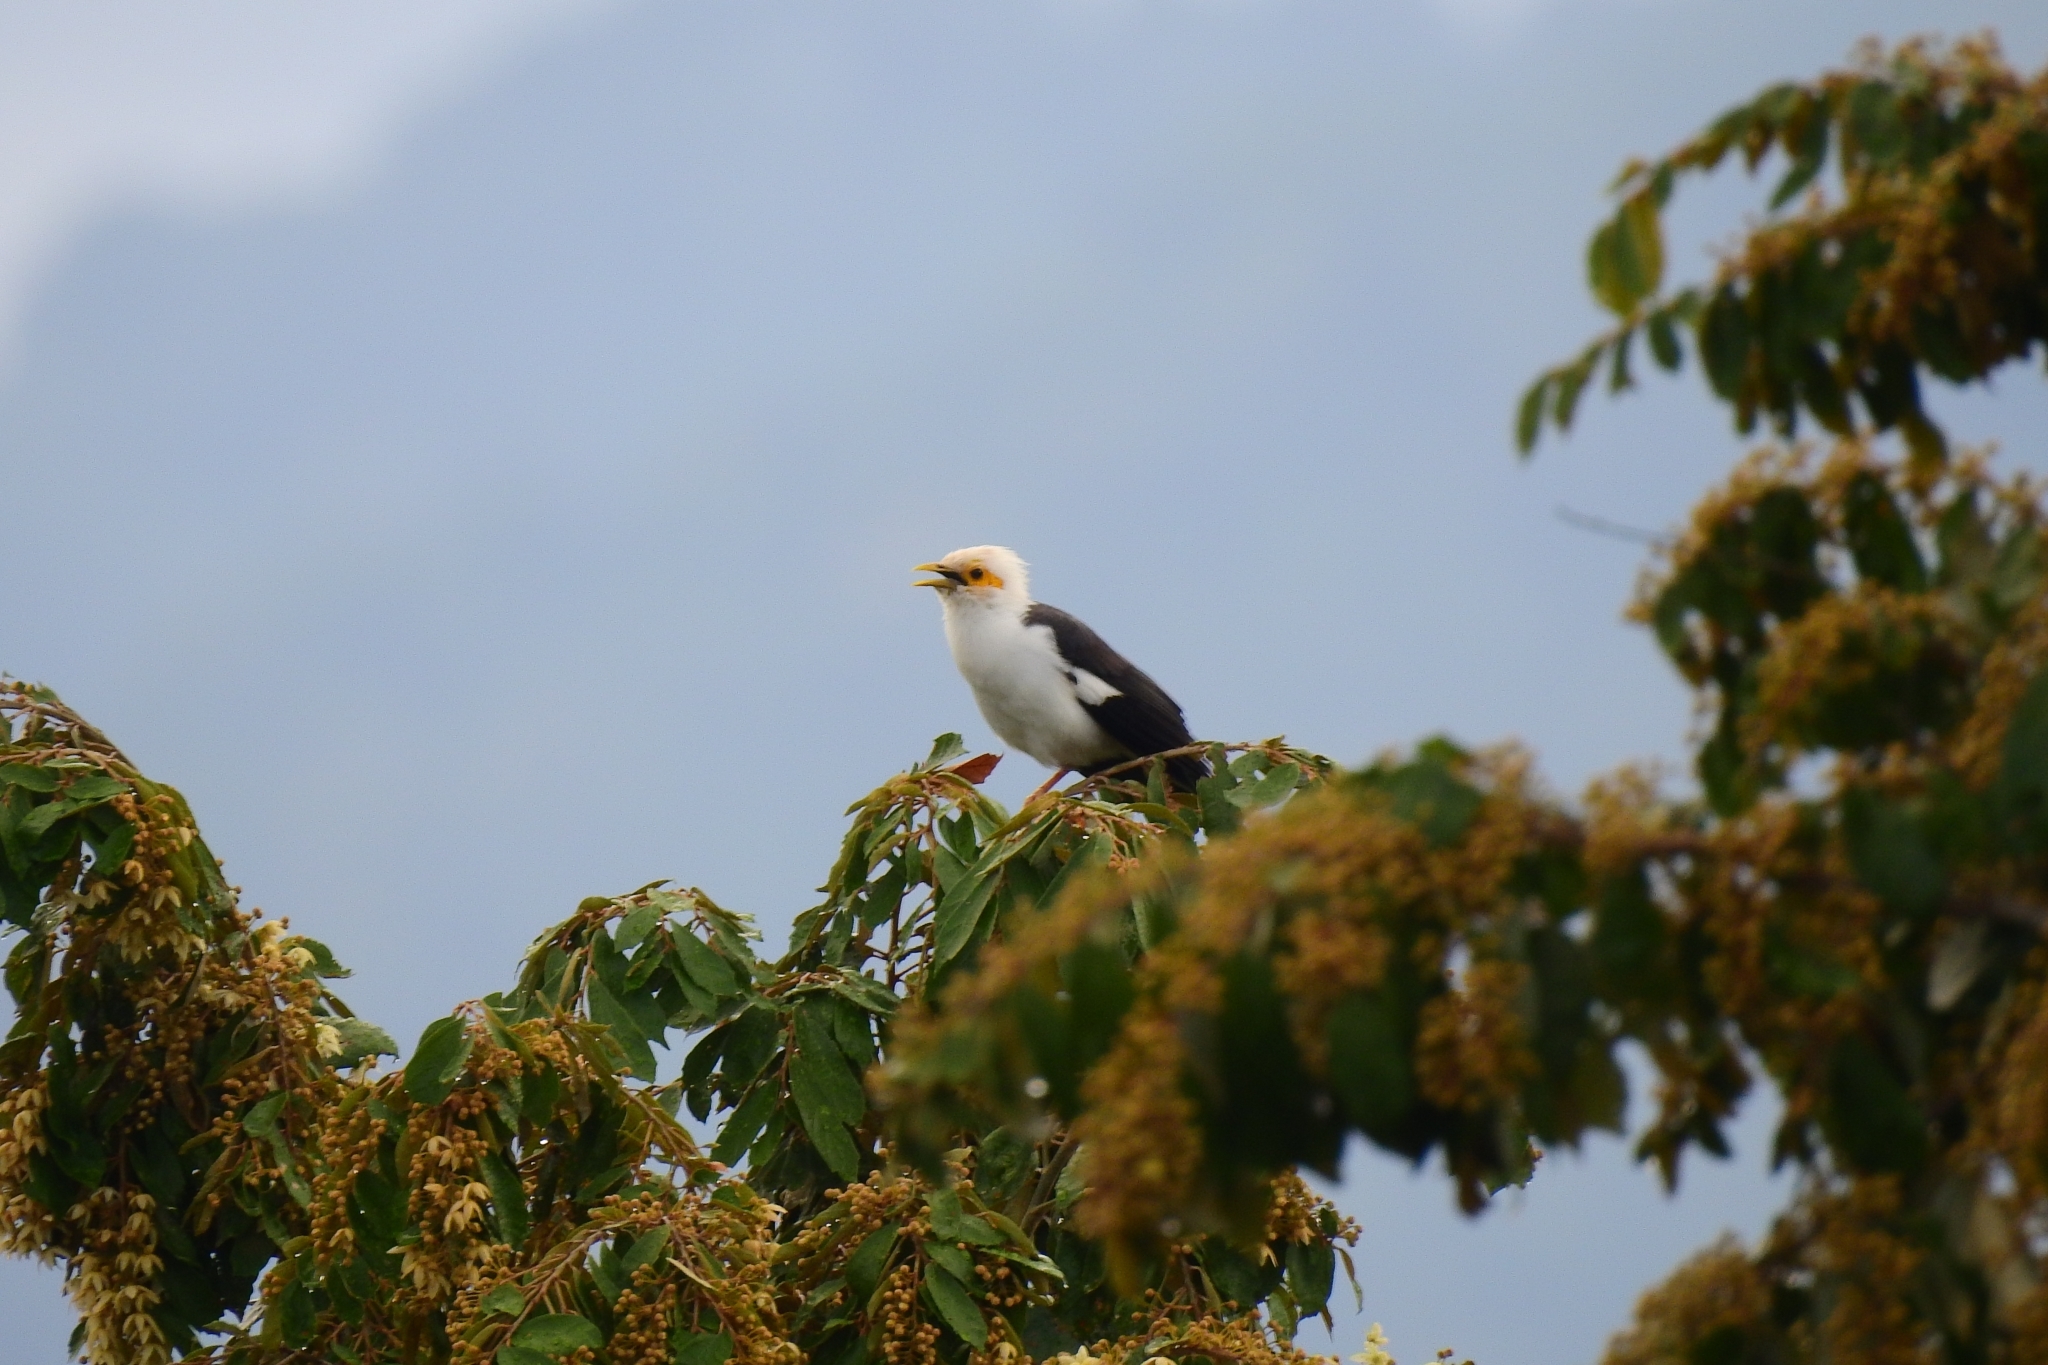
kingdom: Animalia
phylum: Chordata
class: Aves
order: Passeriformes
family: Sturnidae
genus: Acridotheres
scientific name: Acridotheres melanopterus
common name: Black-winged starling
